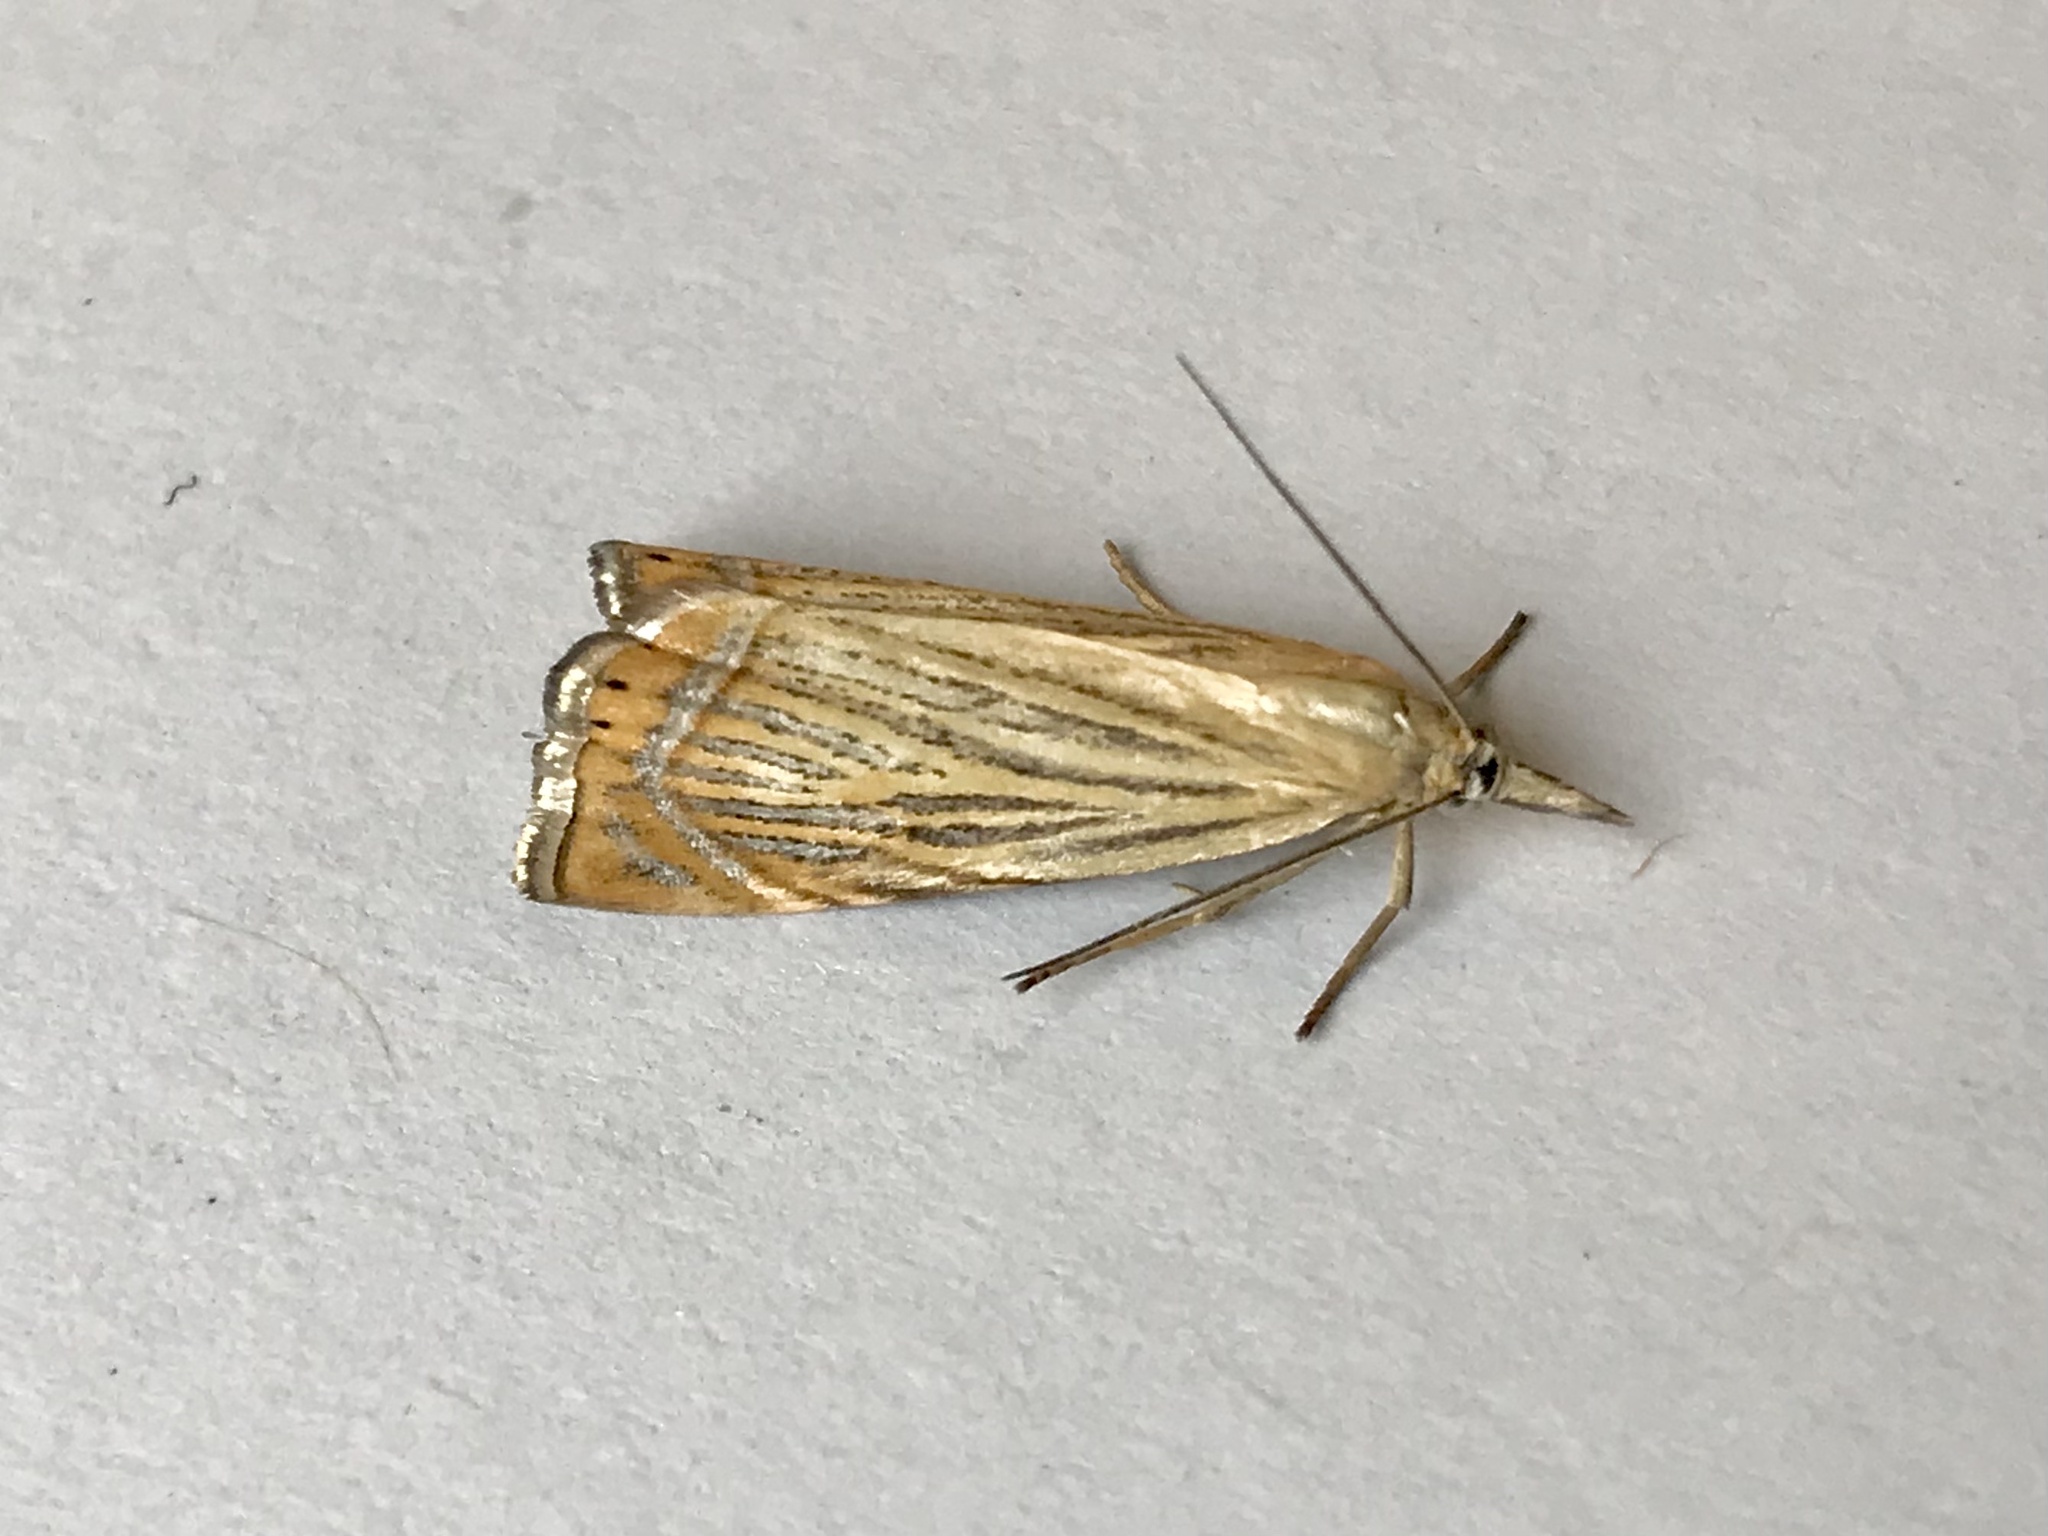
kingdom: Animalia
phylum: Arthropoda
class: Insecta
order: Lepidoptera
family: Crambidae
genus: Chrysoteuchia
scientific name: Chrysoteuchia culmella
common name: Garden grass-veneer
